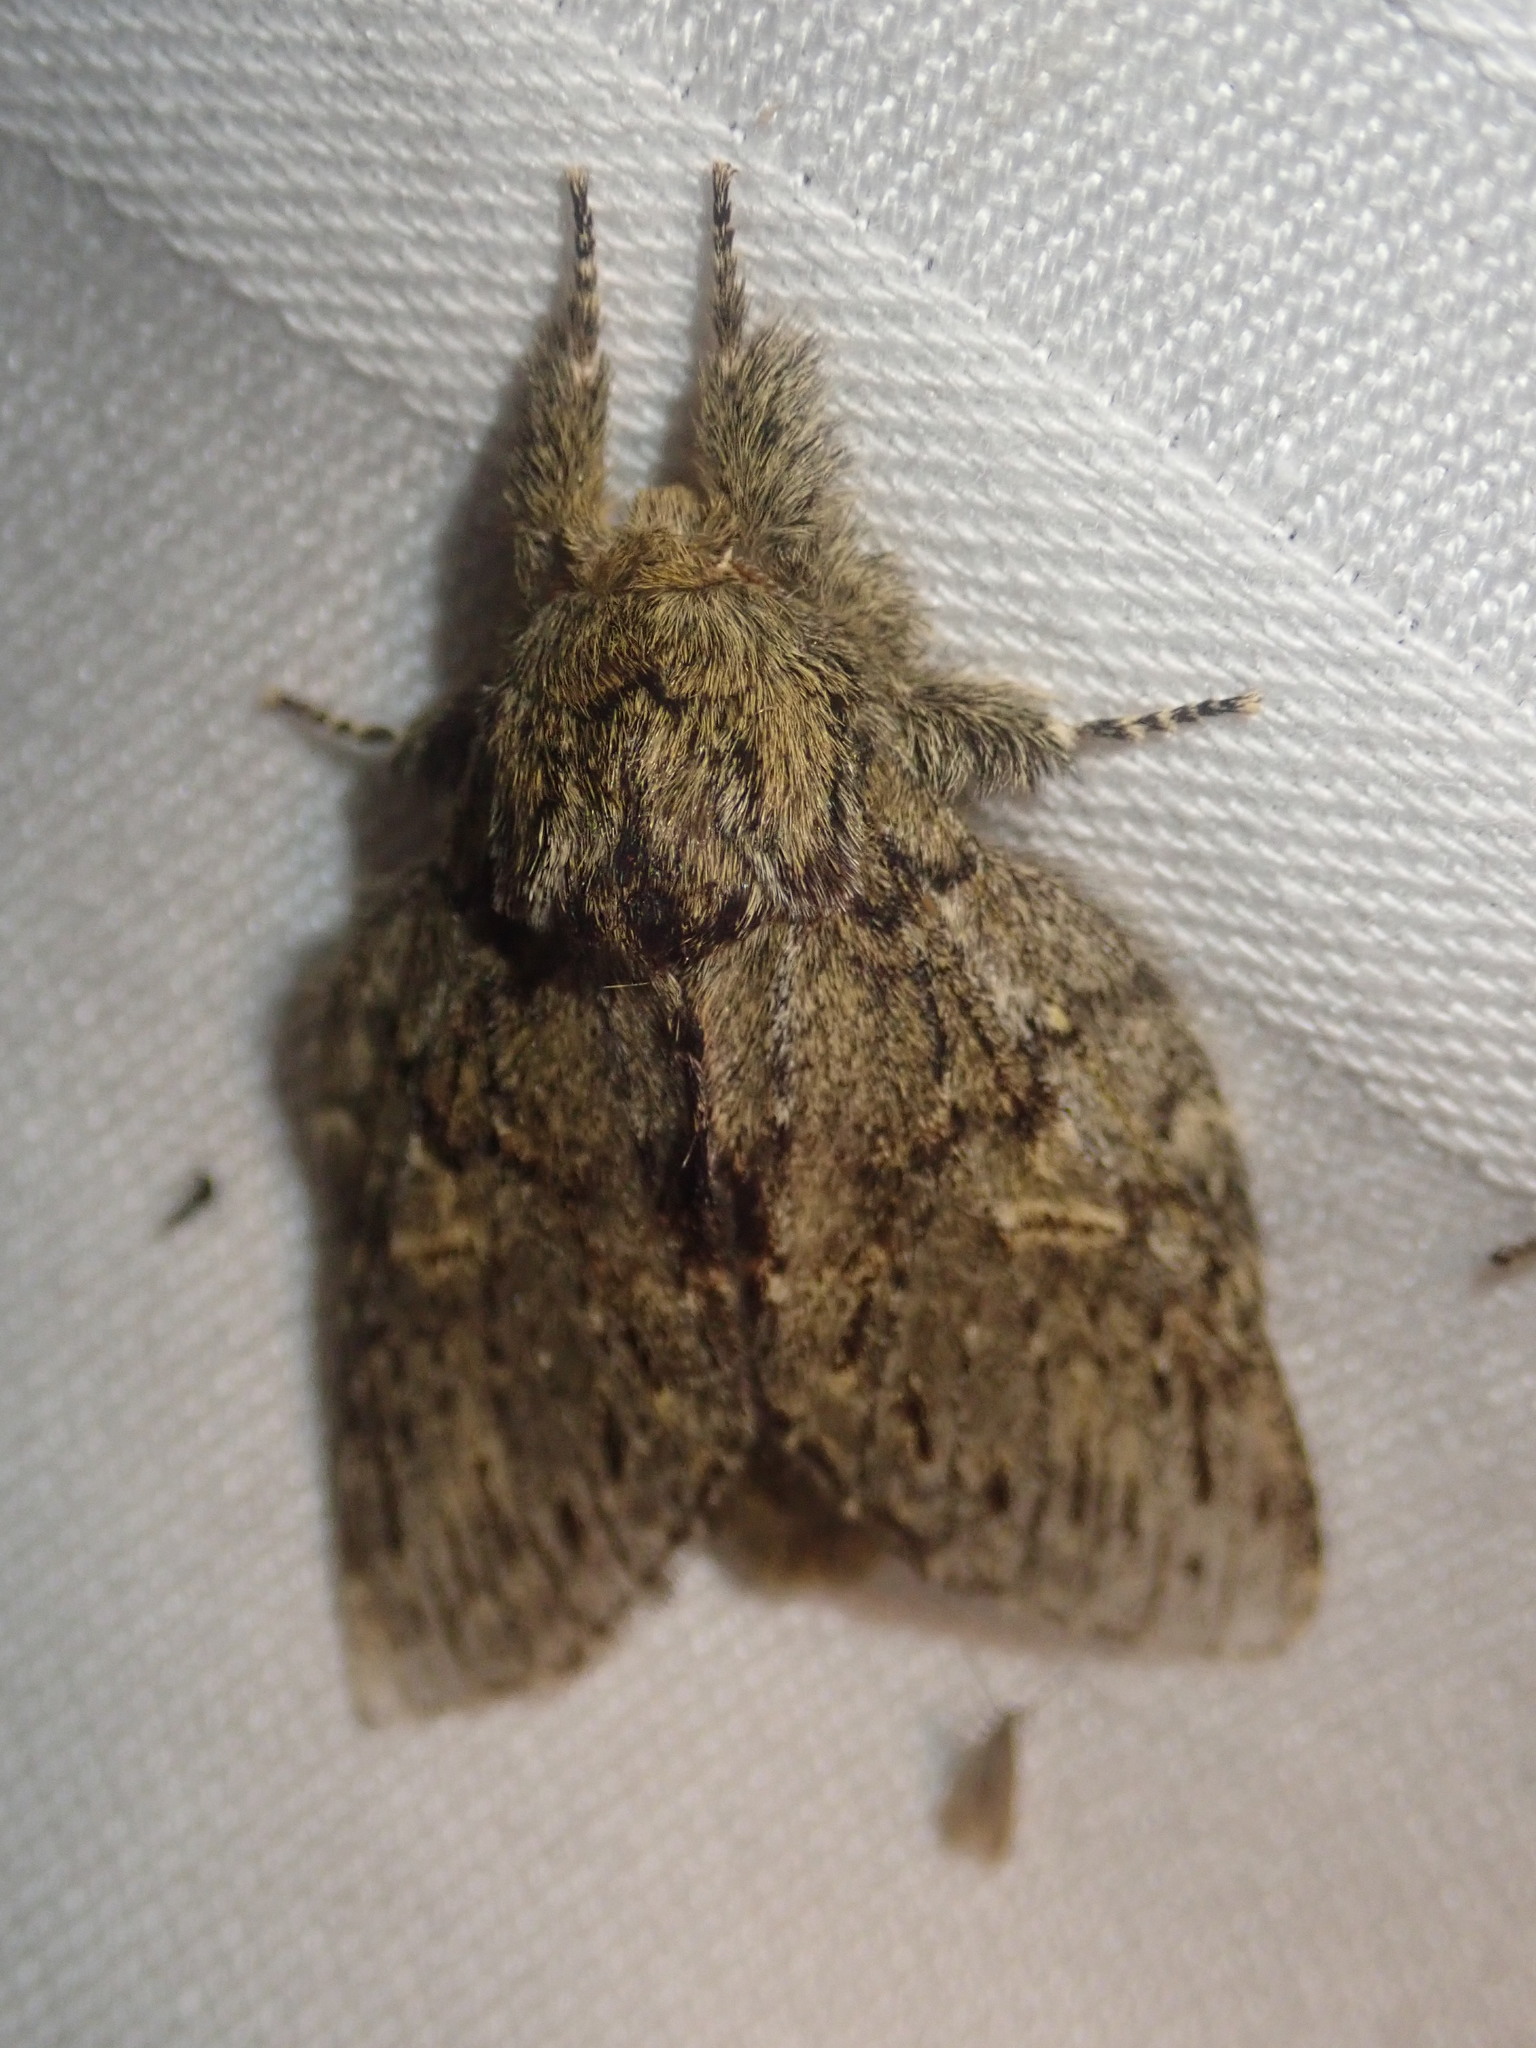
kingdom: Animalia
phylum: Arthropoda
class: Insecta
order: Lepidoptera
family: Notodontidae
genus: Peridea
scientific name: Peridea anceps
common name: Great prominent
